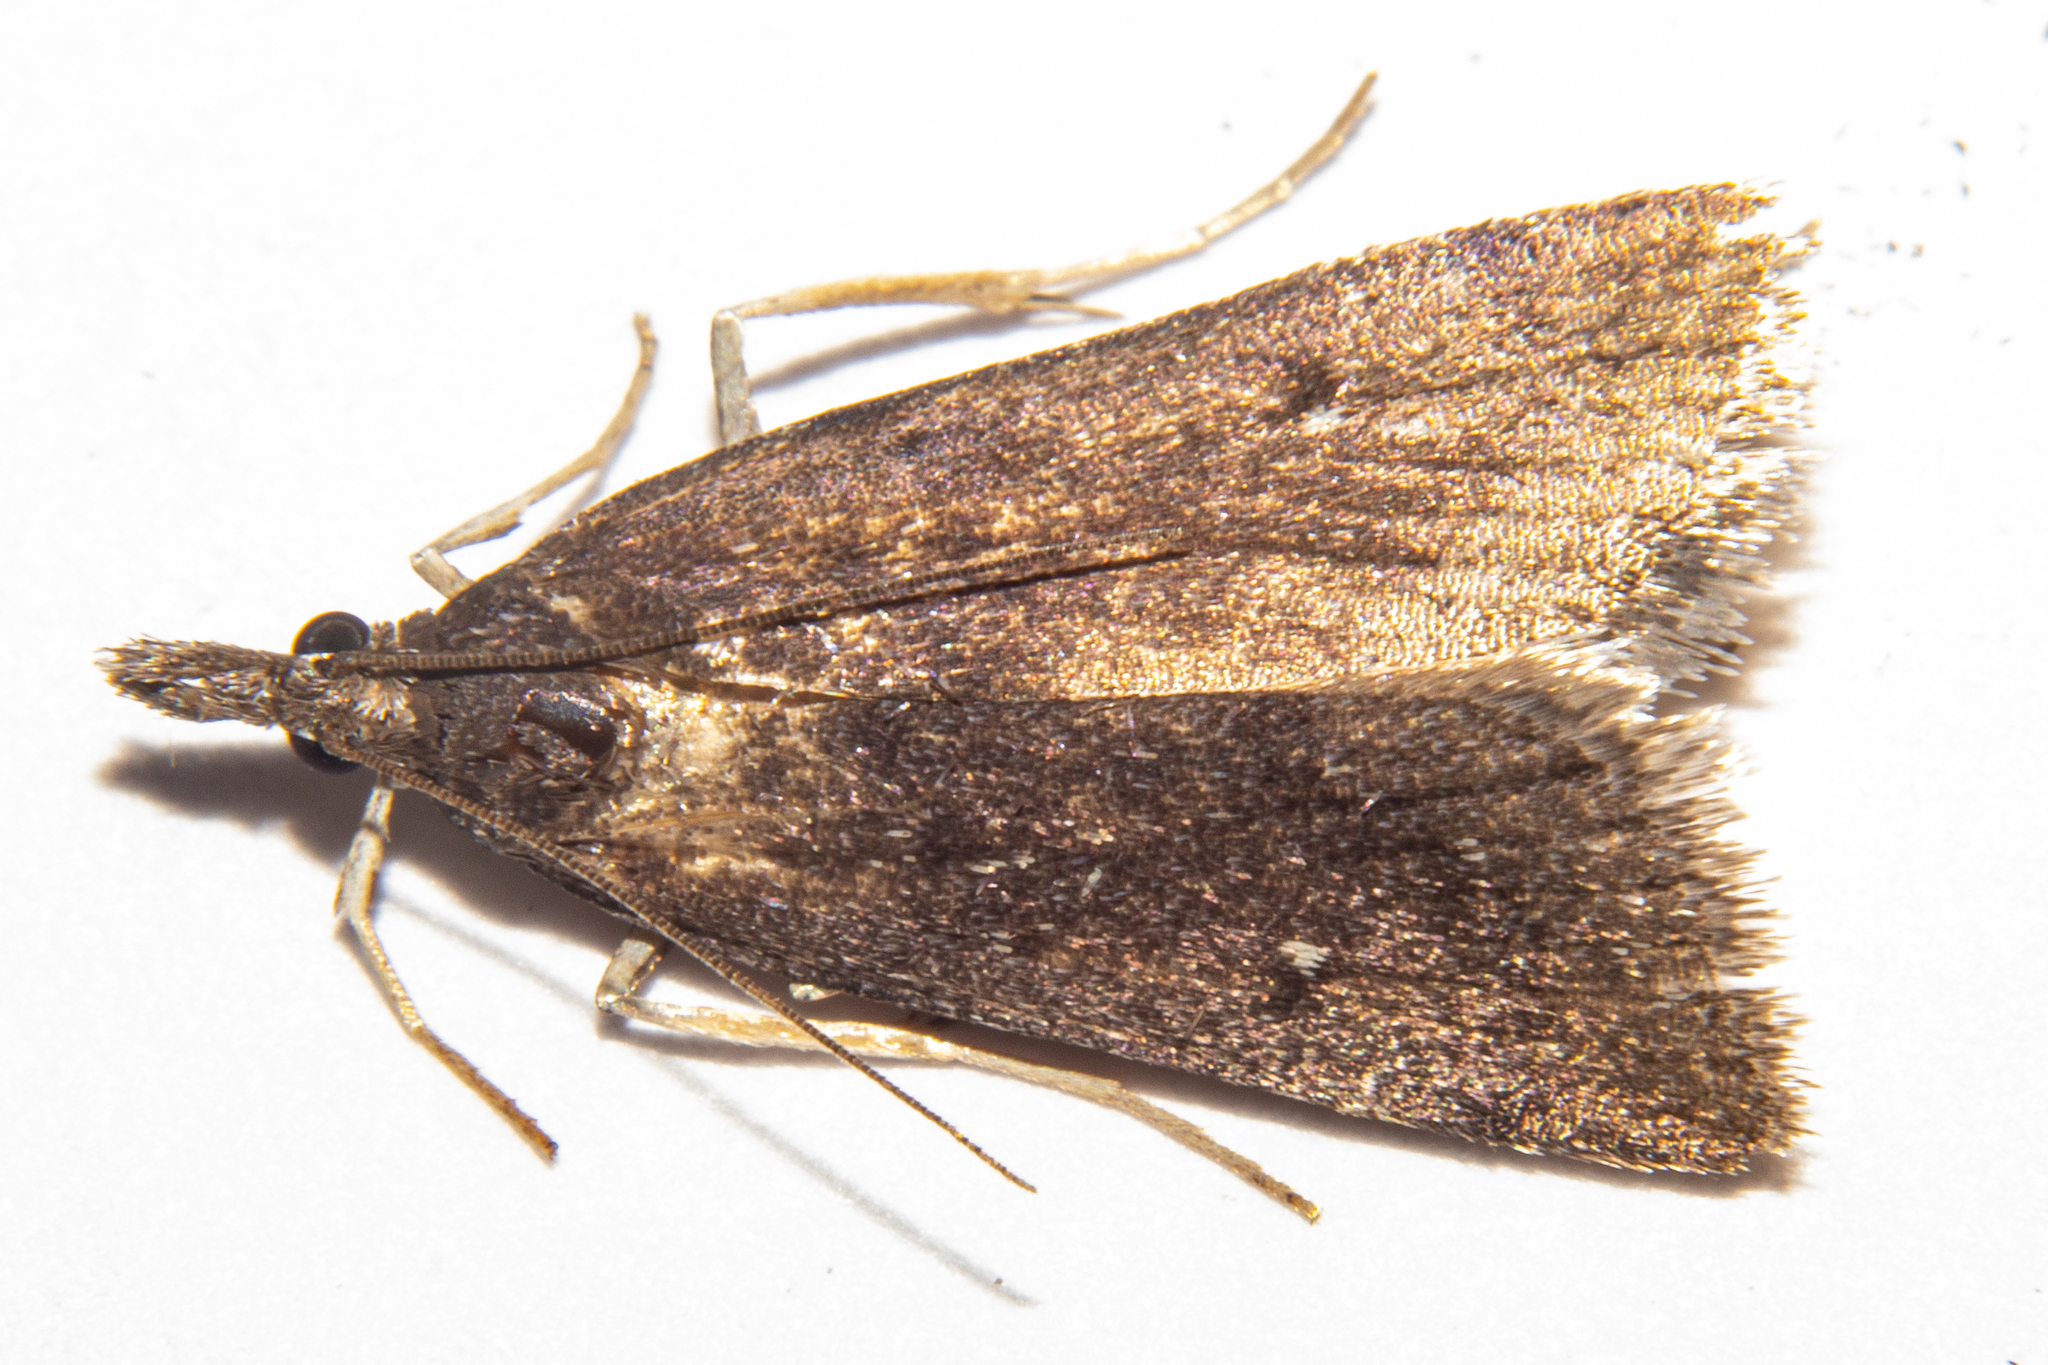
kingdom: Animalia
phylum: Arthropoda
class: Insecta
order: Lepidoptera
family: Crambidae
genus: Eudonia
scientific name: Eudonia oculata
